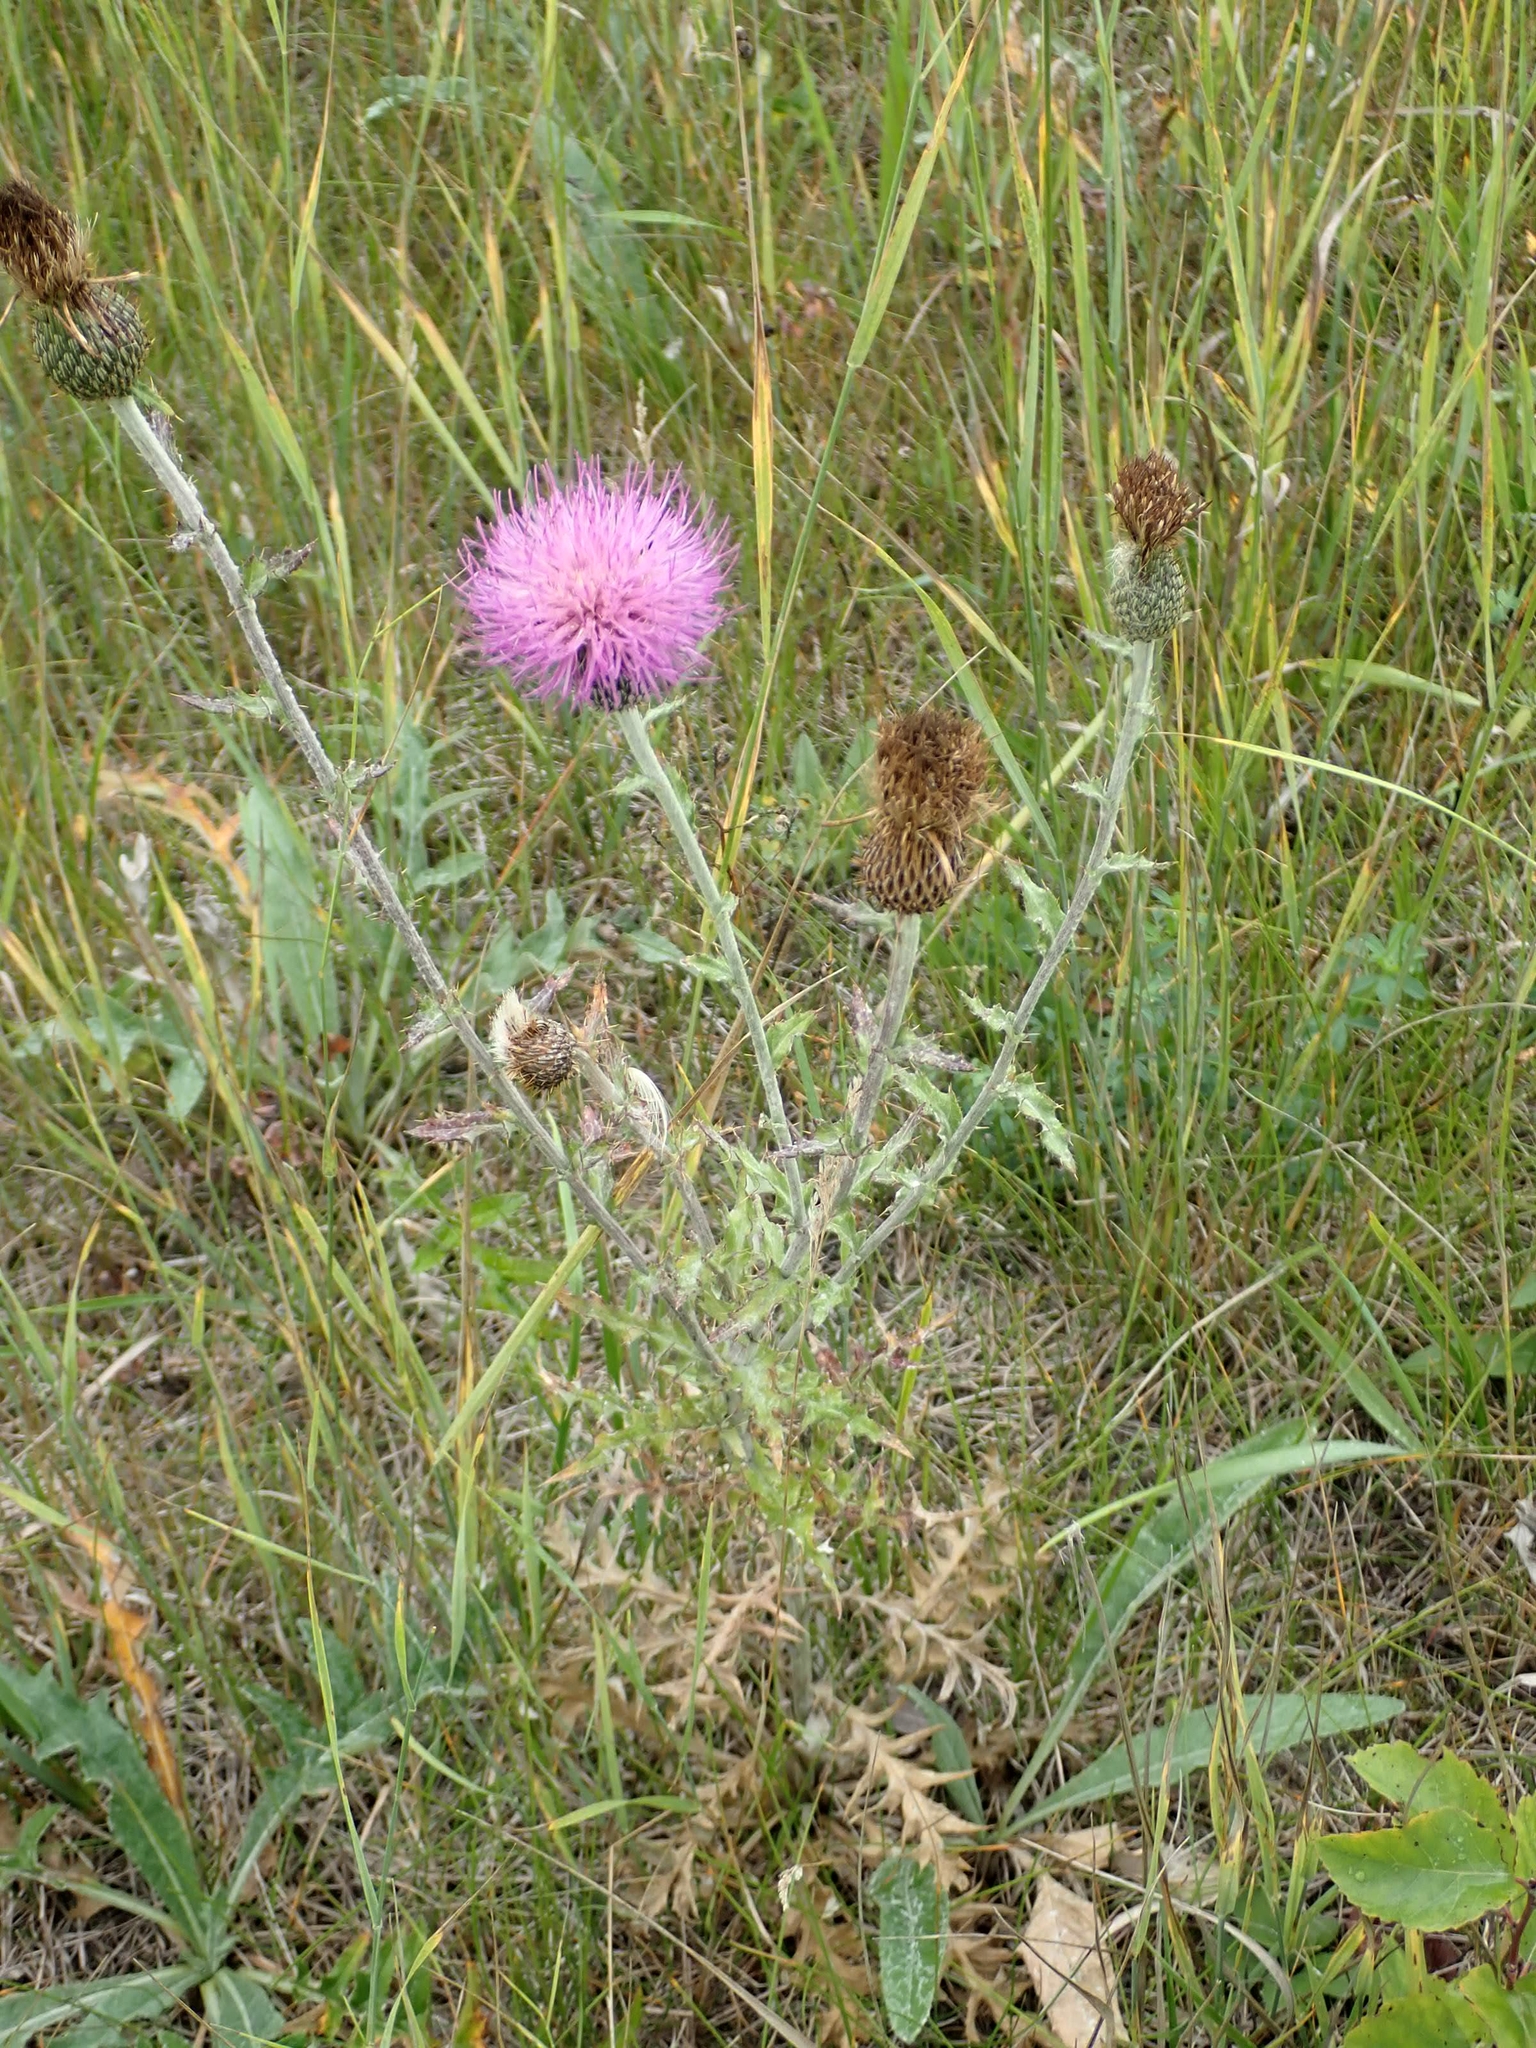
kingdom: Plantae
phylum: Tracheophyta
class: Magnoliopsida
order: Asterales
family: Asteraceae
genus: Cirsium
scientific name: Cirsium flodmanii
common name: Flodman's thistle
